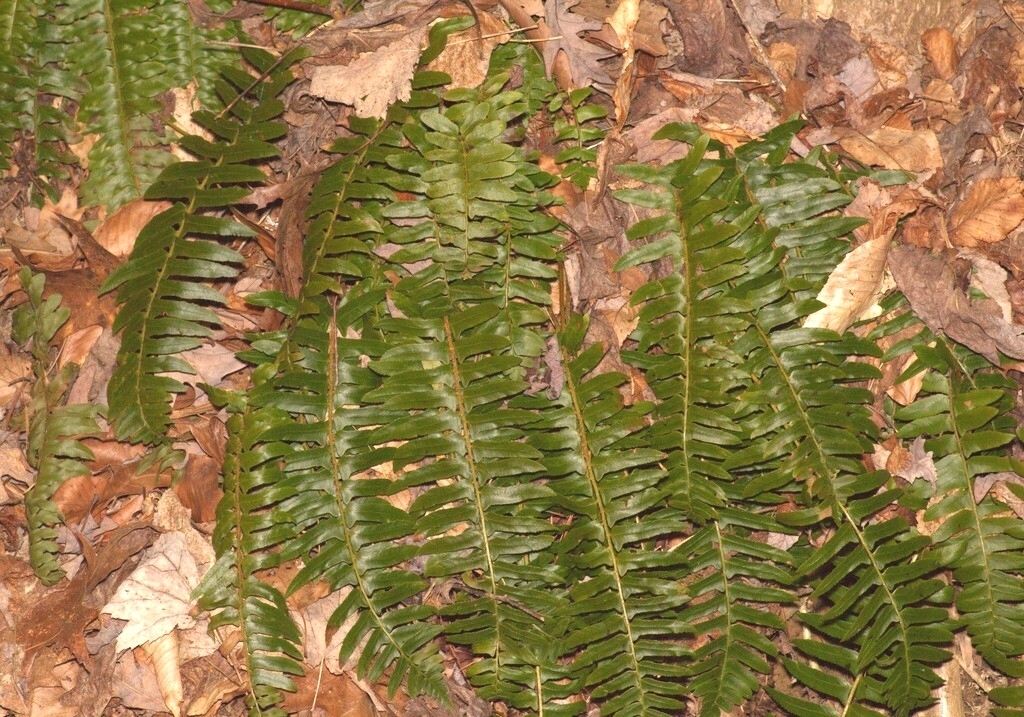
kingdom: Plantae
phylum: Tracheophyta
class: Polypodiopsida
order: Polypodiales
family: Dryopteridaceae
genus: Polystichum
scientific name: Polystichum acrostichoides
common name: Christmas fern
